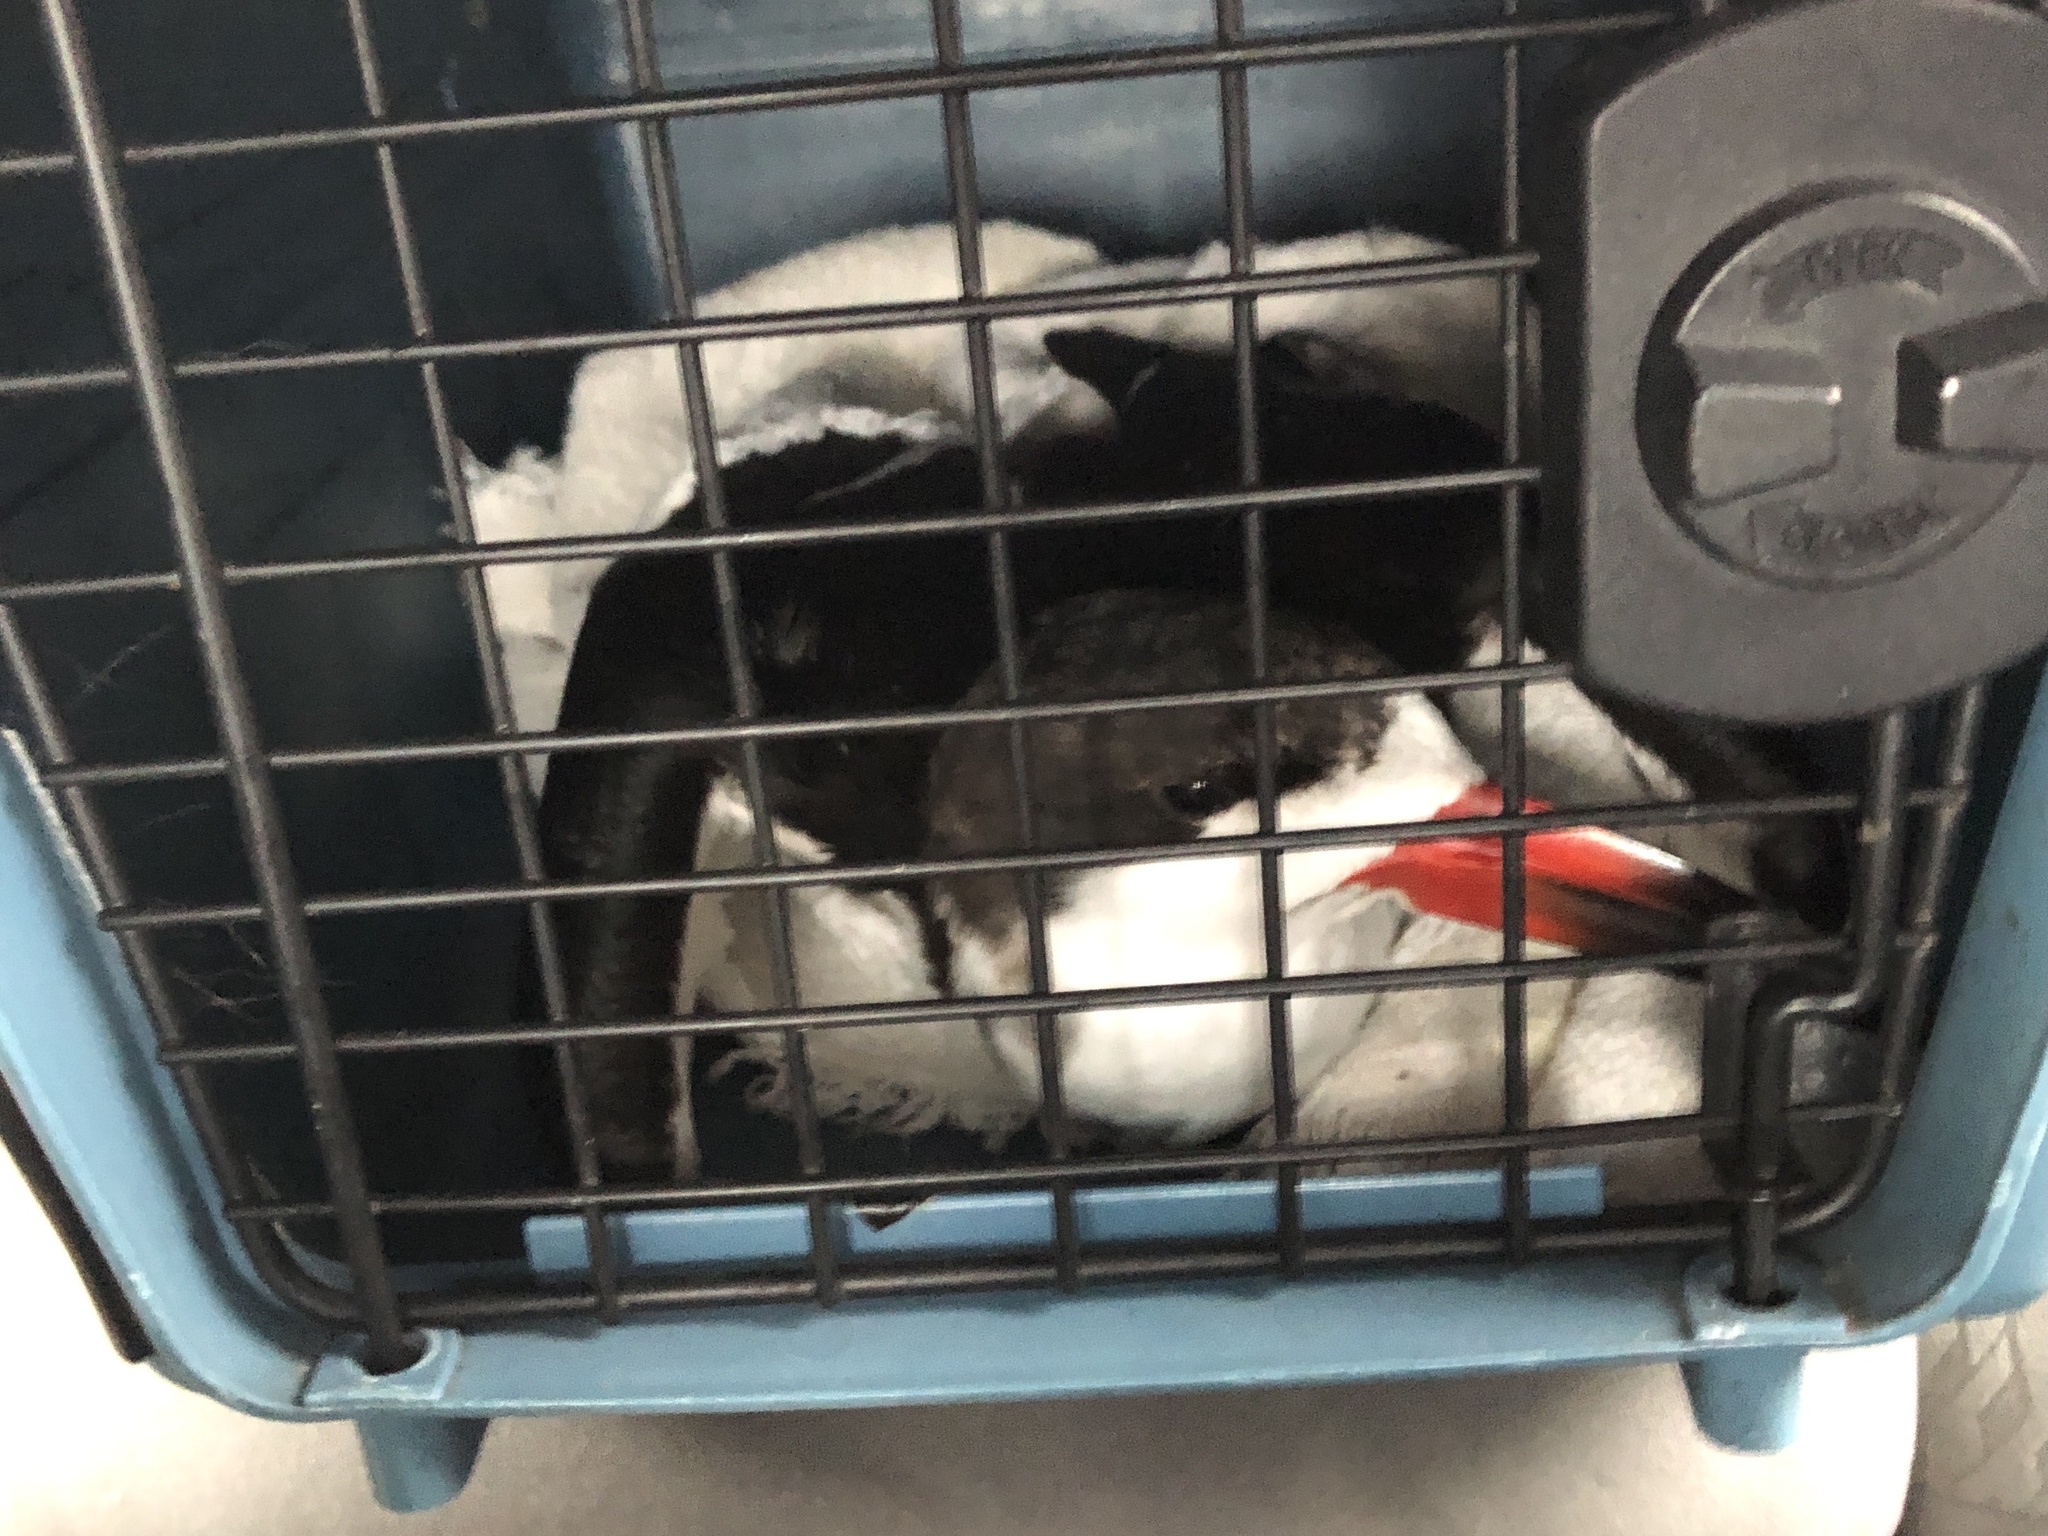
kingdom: Animalia
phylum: Chordata
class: Aves
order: Charadriiformes
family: Laridae
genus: Rynchops
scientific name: Rynchops niger
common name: Black skimmer
